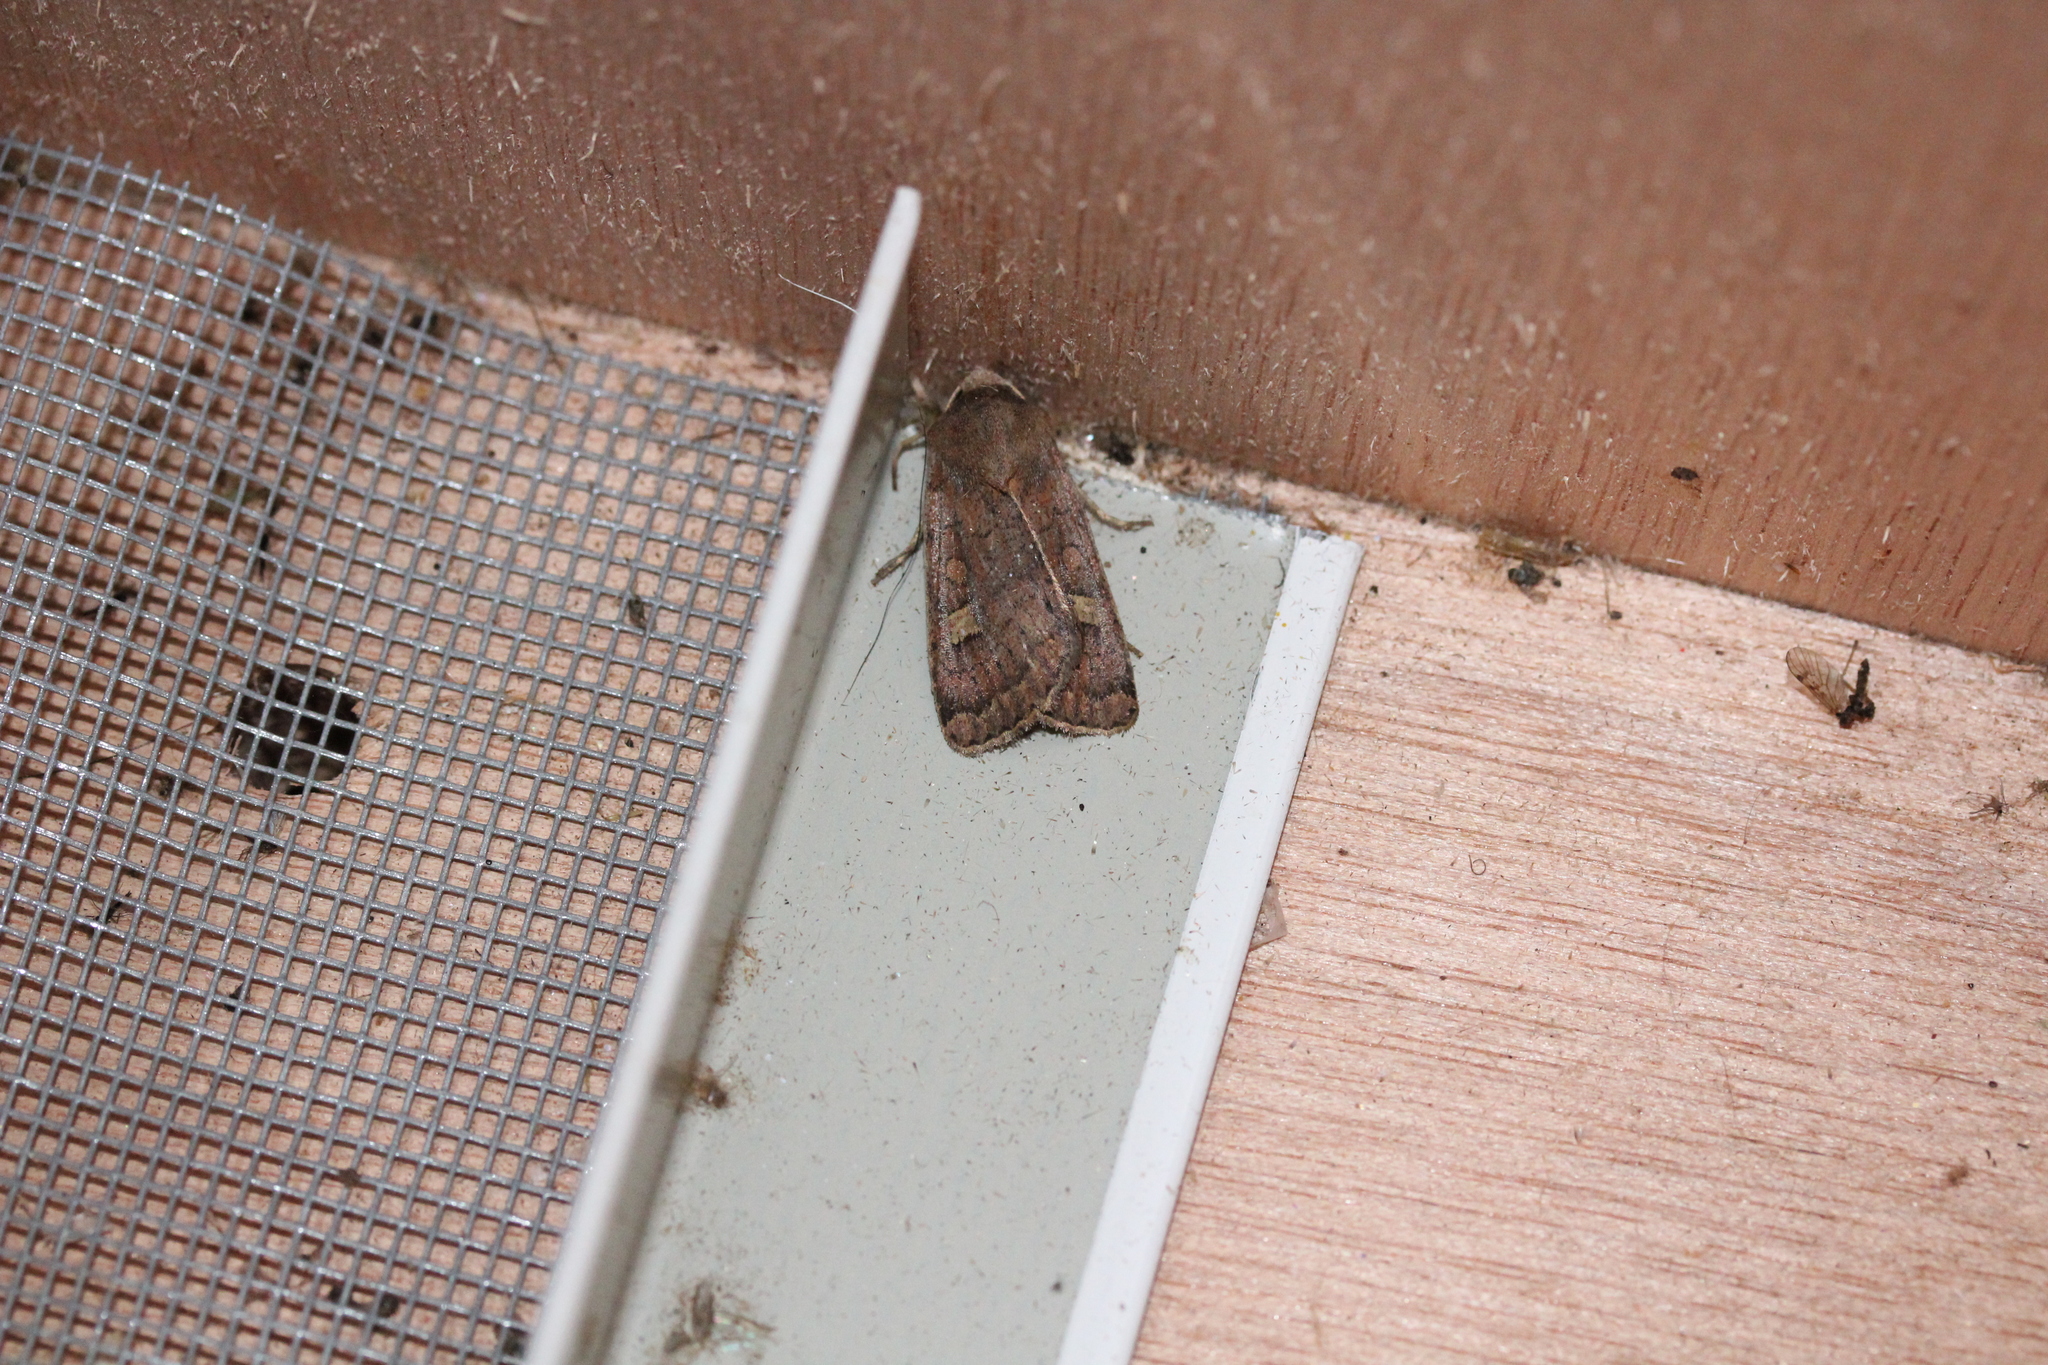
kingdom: Animalia
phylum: Arthropoda
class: Insecta
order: Lepidoptera
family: Noctuidae
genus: Xestia
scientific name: Xestia xanthographa
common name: Square-spot rustic
